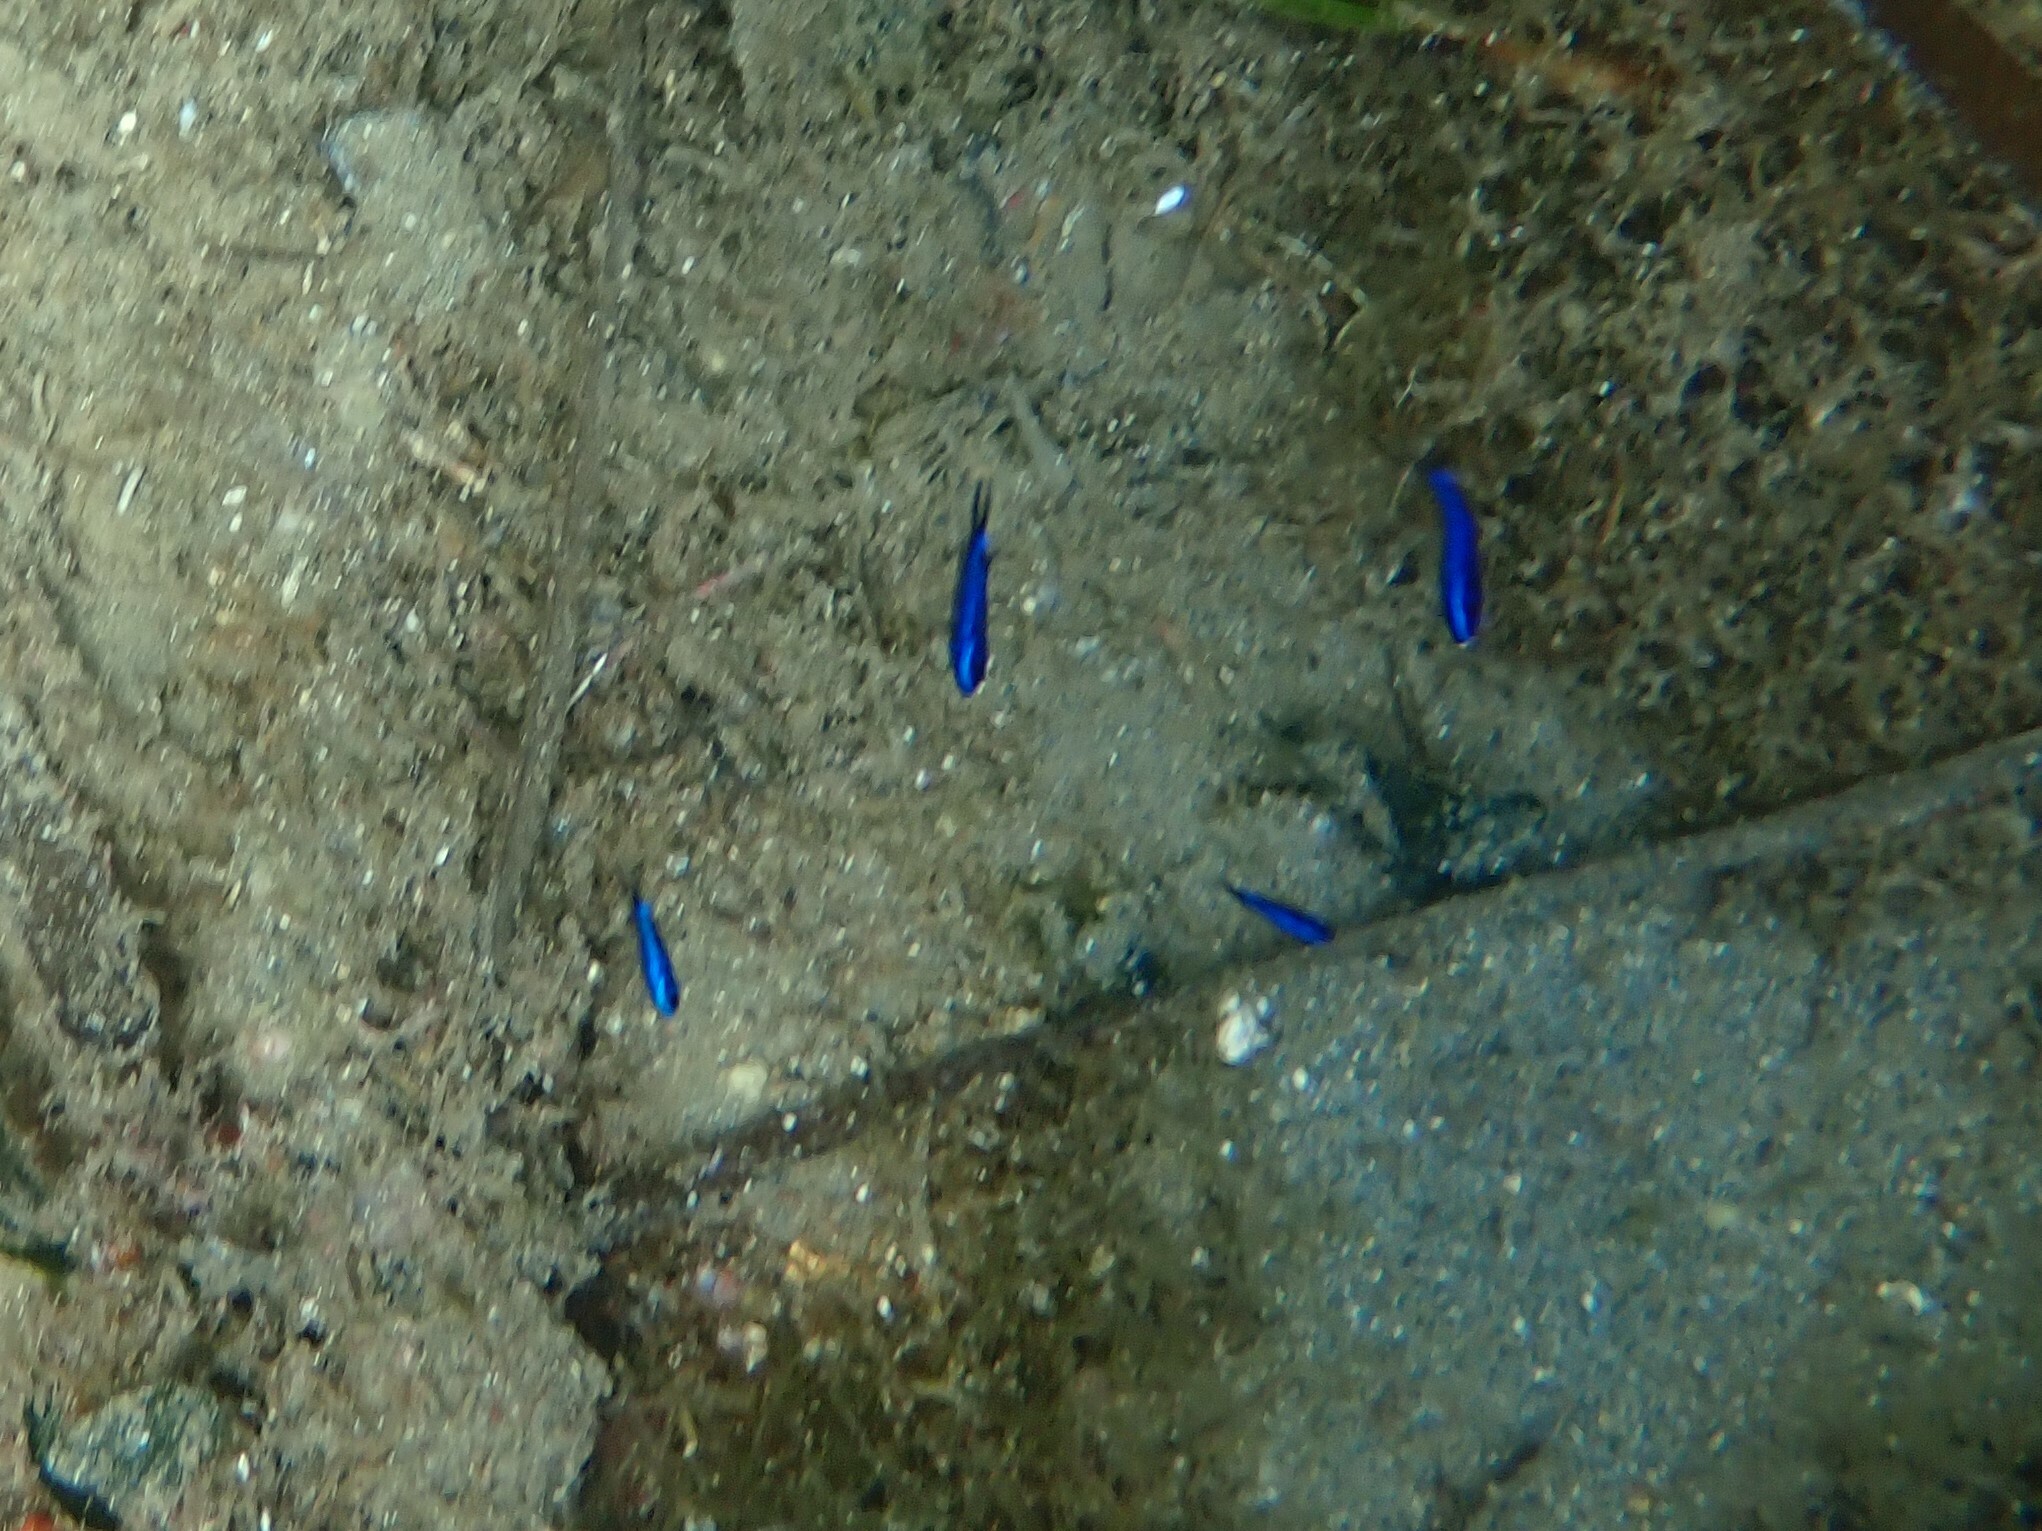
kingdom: Animalia
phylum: Chordata
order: Perciformes
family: Pomacentridae
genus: Chromis
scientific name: Chromis chromis
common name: Damselfish
